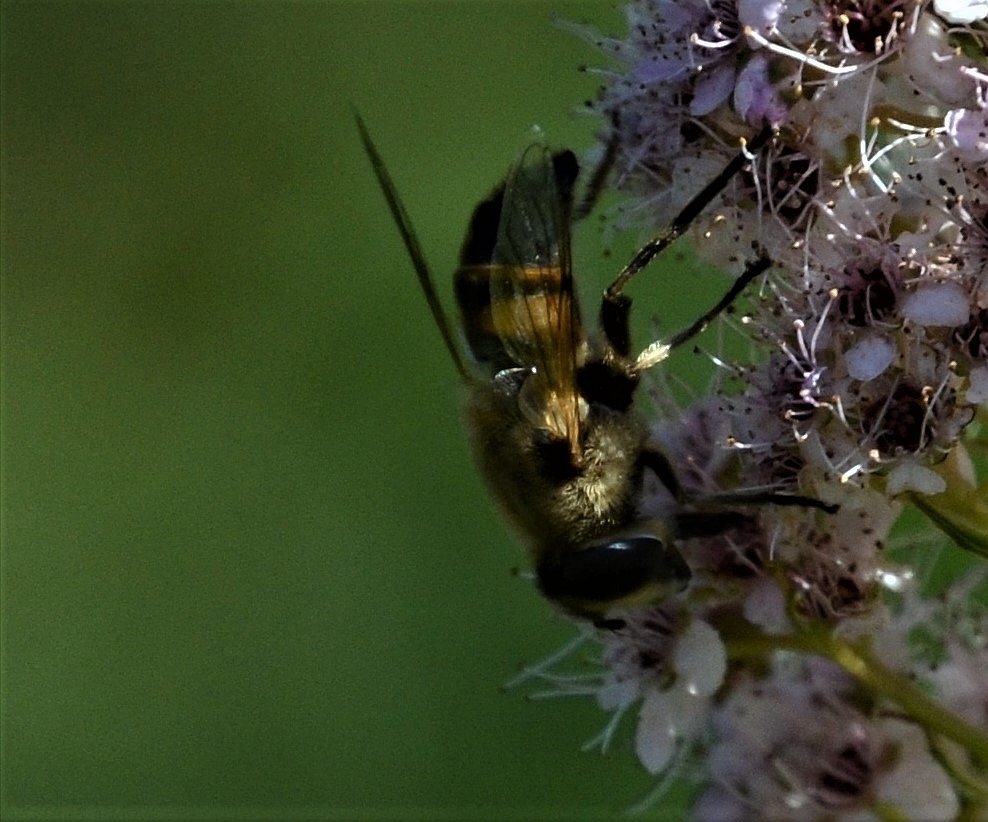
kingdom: Animalia
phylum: Arthropoda
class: Insecta
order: Diptera
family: Syrphidae
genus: Eristalis
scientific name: Eristalis tenax
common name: Drone fly
